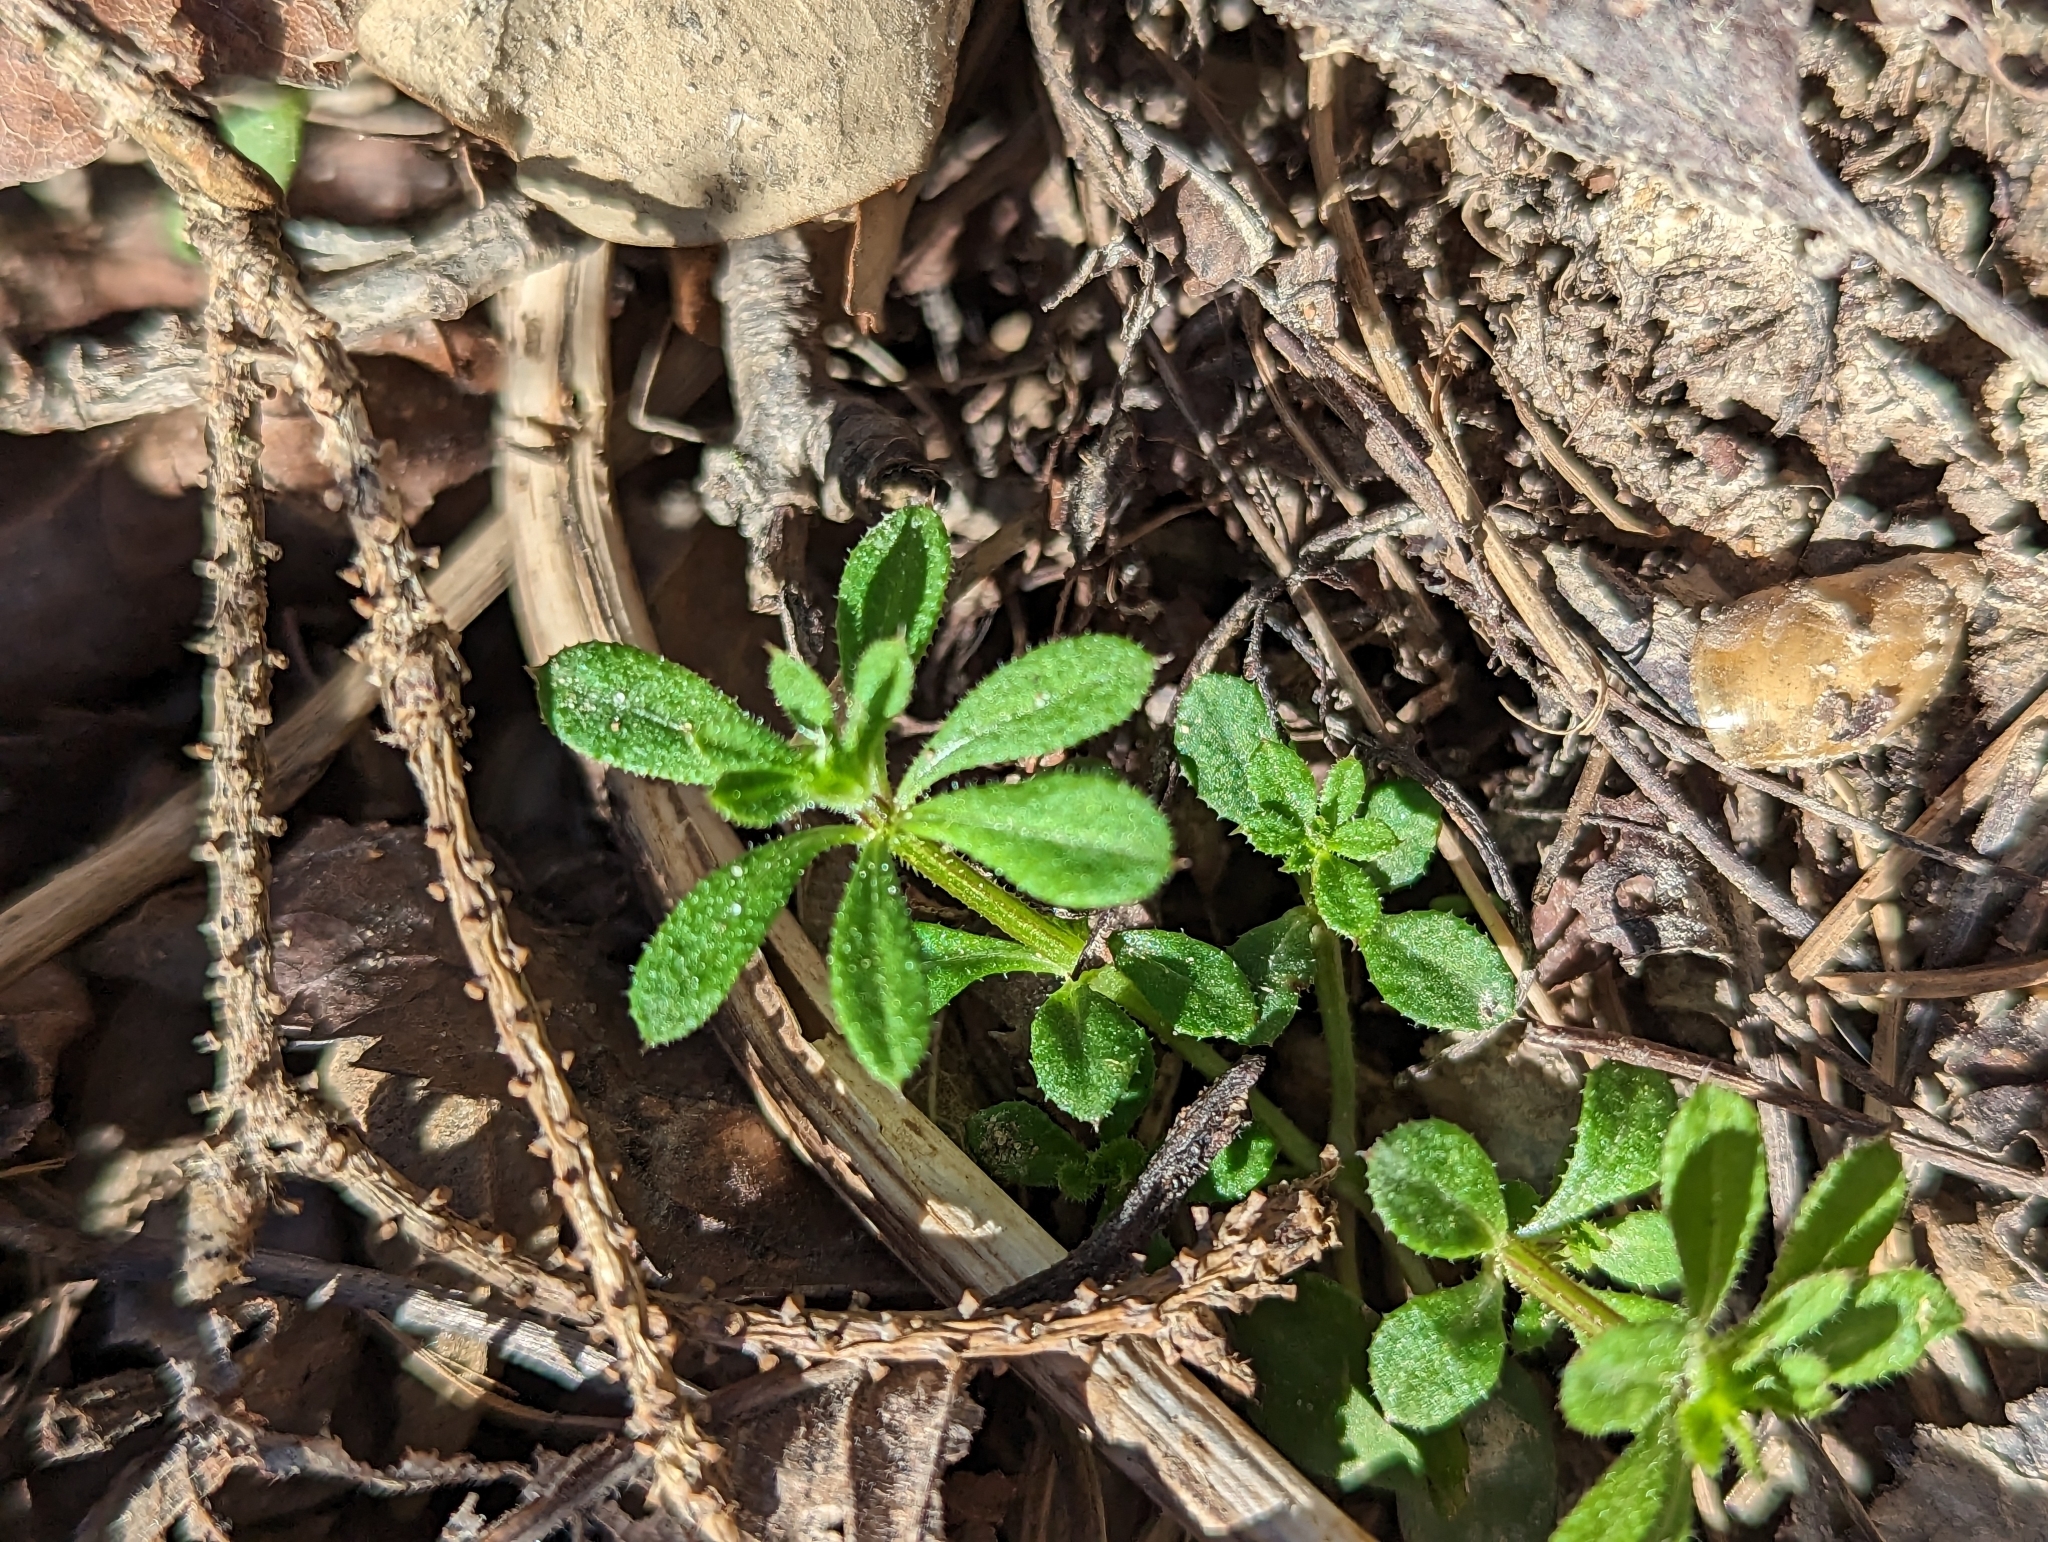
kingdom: Plantae
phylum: Tracheophyta
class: Magnoliopsida
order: Gentianales
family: Rubiaceae
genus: Galium
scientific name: Galium aparine
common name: Cleavers
